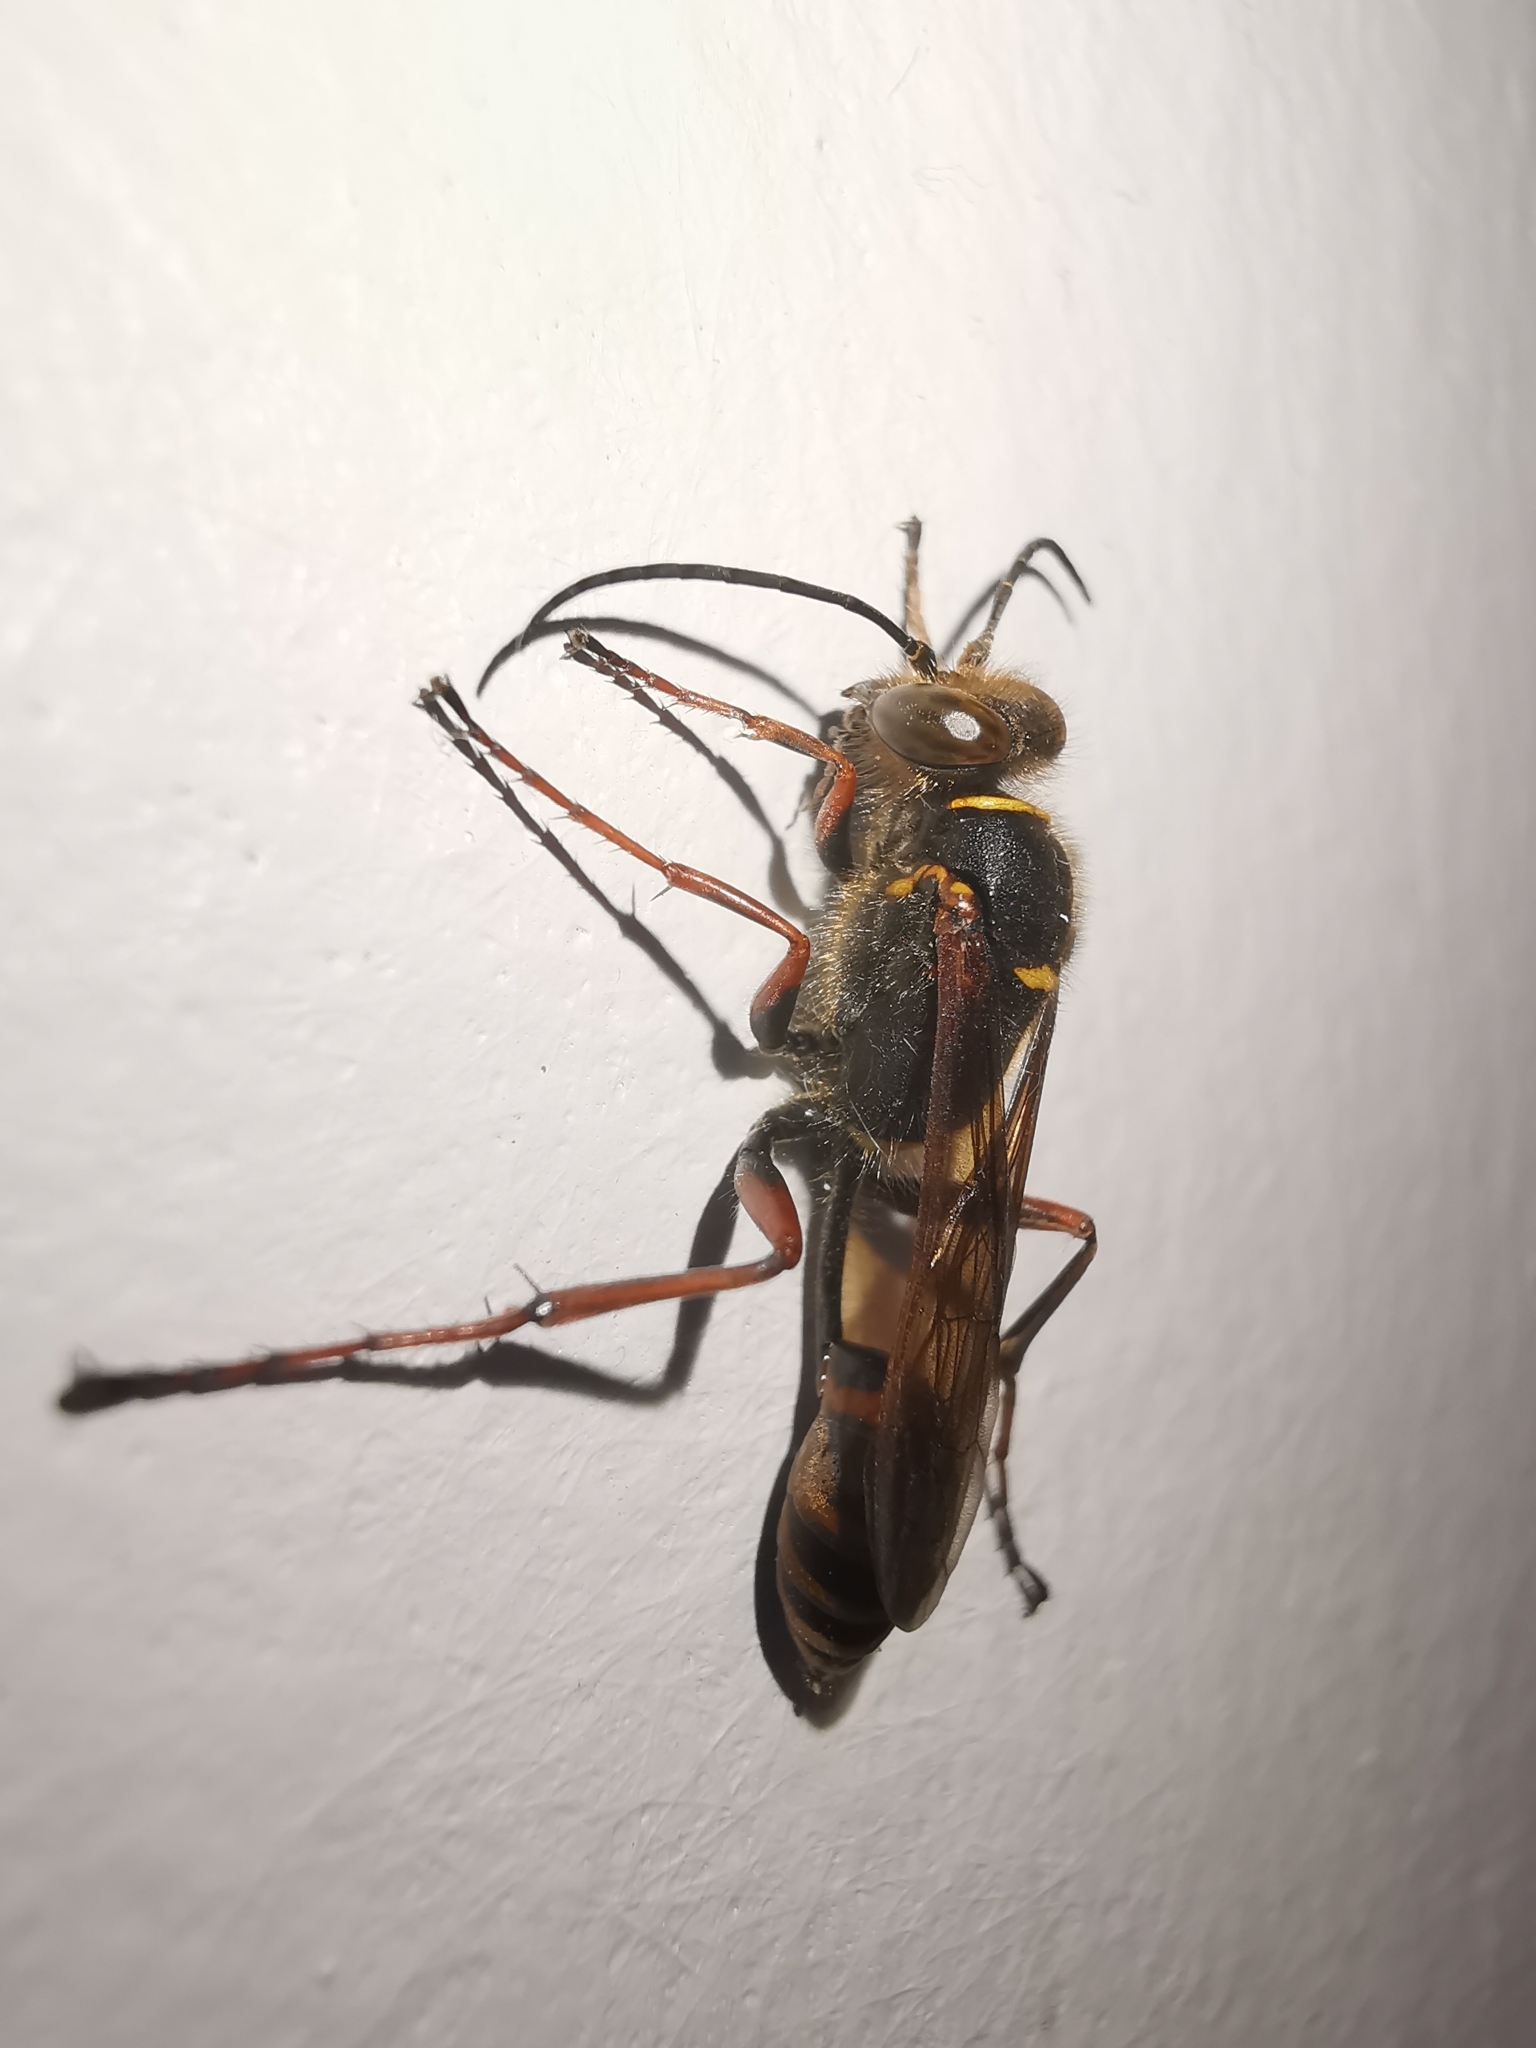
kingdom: Animalia
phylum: Arthropoda
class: Insecta
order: Hymenoptera
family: Sphecidae
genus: Sceliphron
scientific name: Sceliphron curvatum
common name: Pèlopèe
